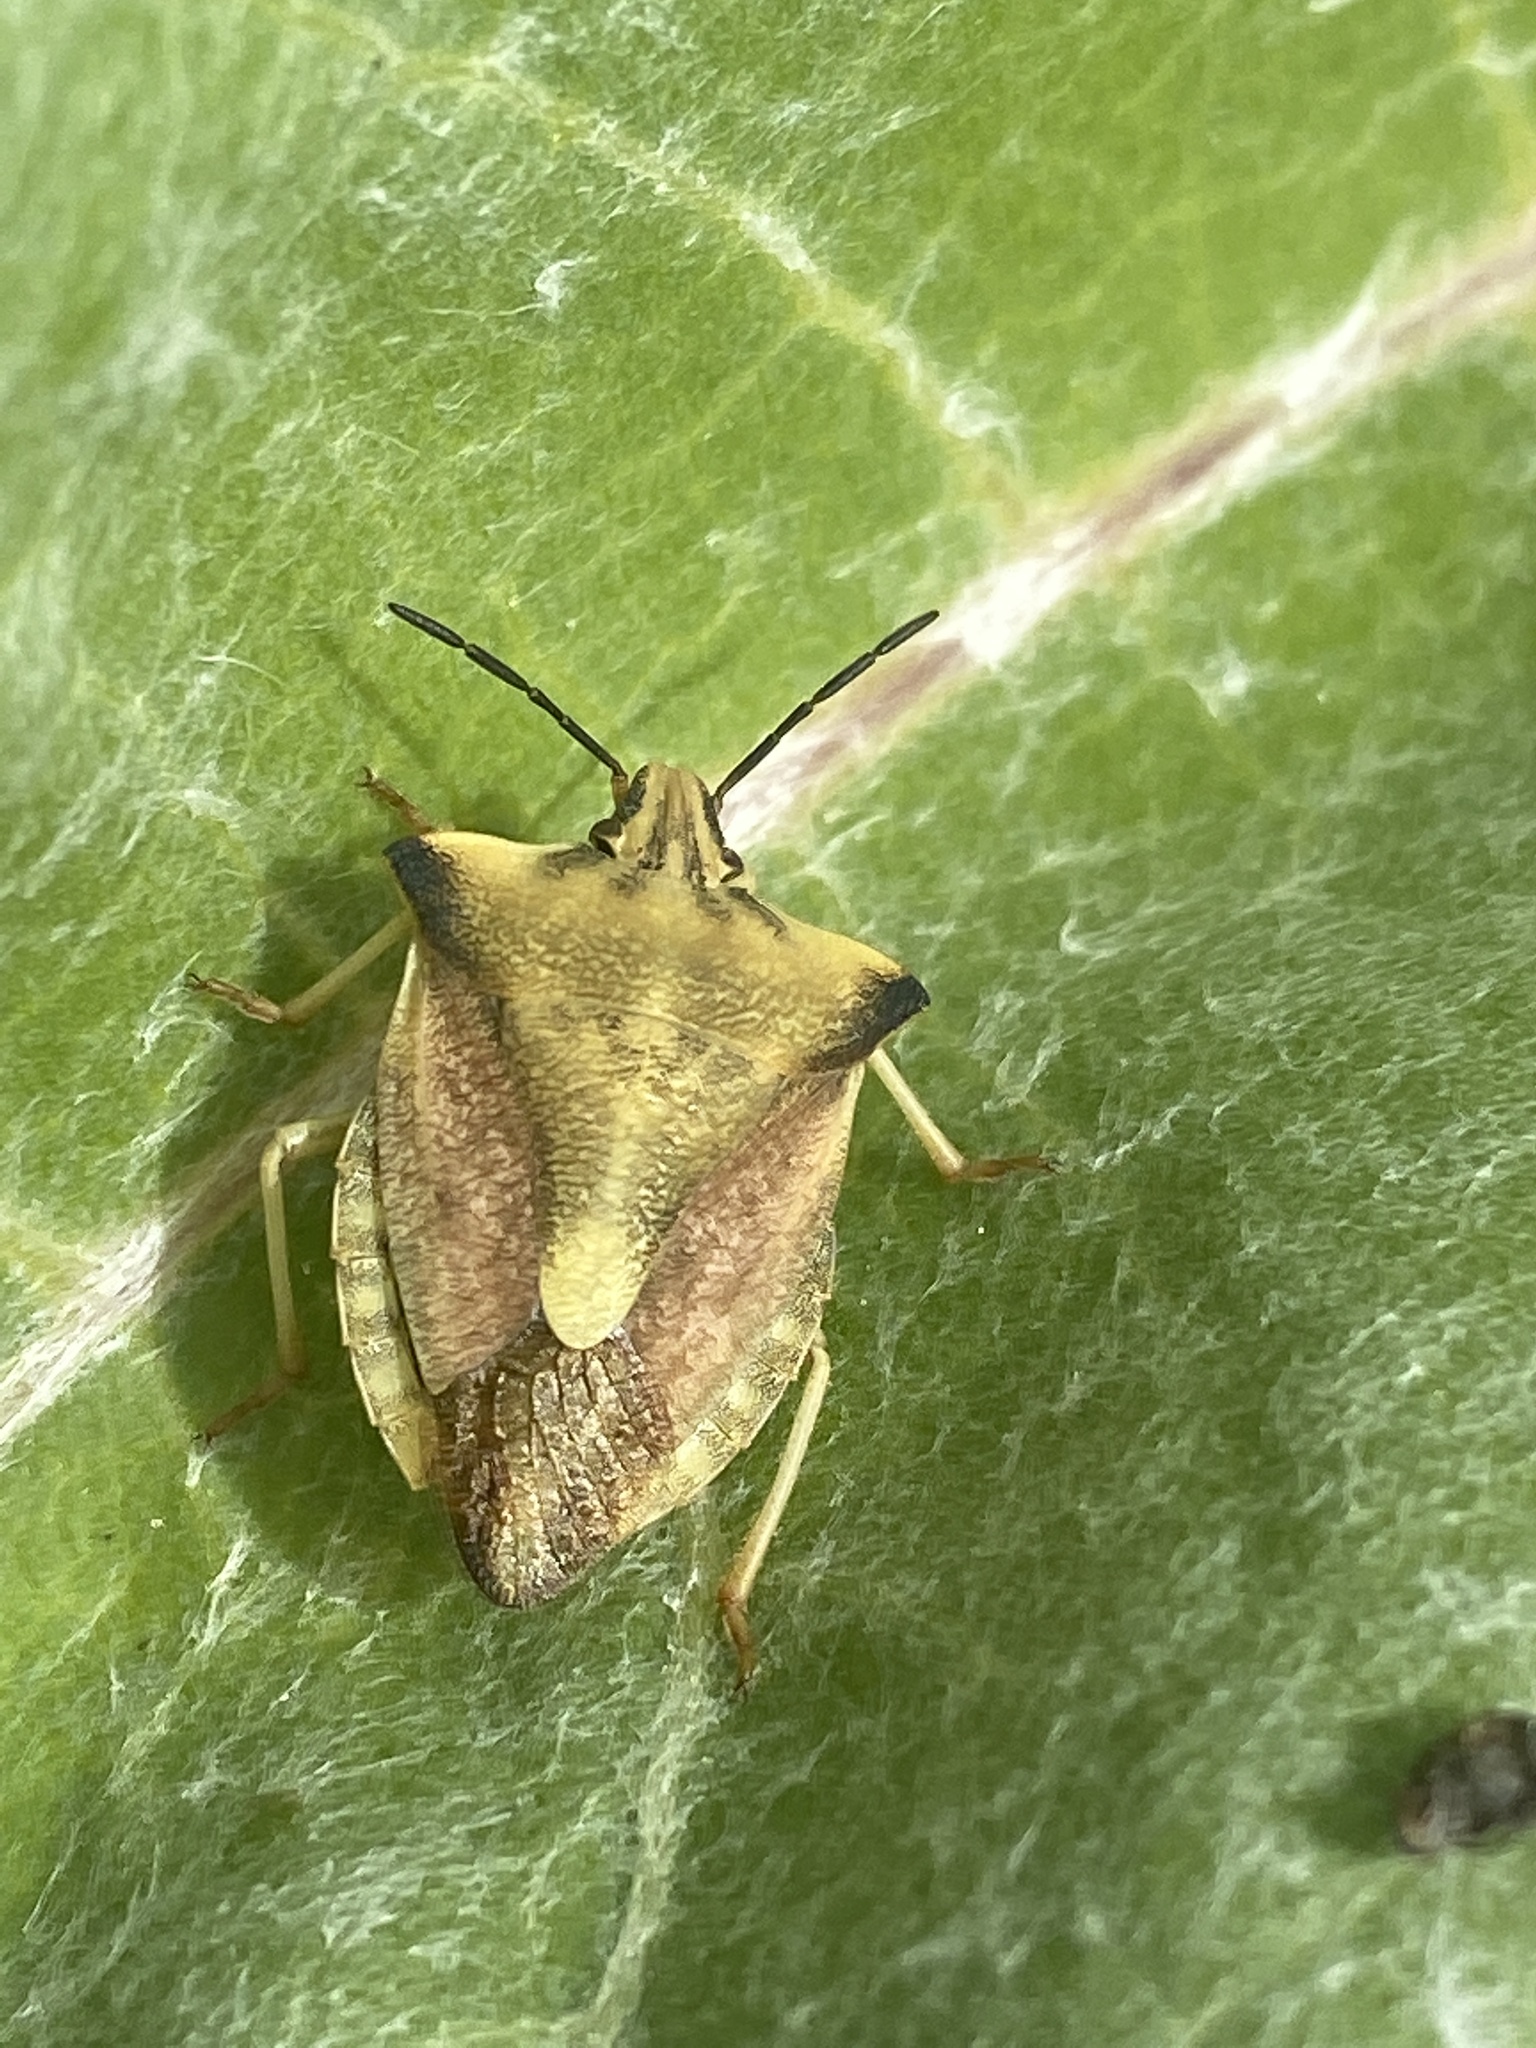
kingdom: Animalia
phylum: Arthropoda
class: Insecta
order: Hemiptera
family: Pentatomidae
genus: Carpocoris
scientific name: Carpocoris fuscispinus
